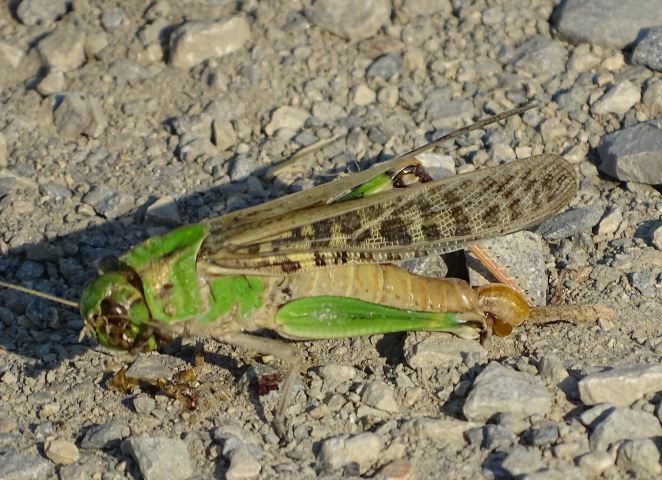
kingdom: Animalia
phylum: Arthropoda
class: Insecta
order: Orthoptera
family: Acrididae
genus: Locusta
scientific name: Locusta migratoria
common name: Migratory locust
